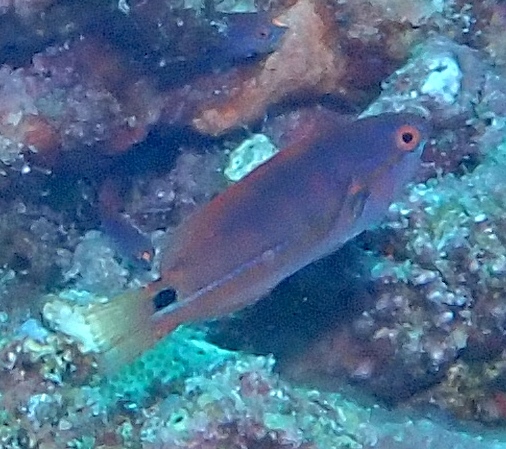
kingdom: Animalia
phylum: Chordata
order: Perciformes
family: Labridae
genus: Cirrhilabrus
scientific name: Cirrhilabrus exquisitus
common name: Exquisite wrasse
